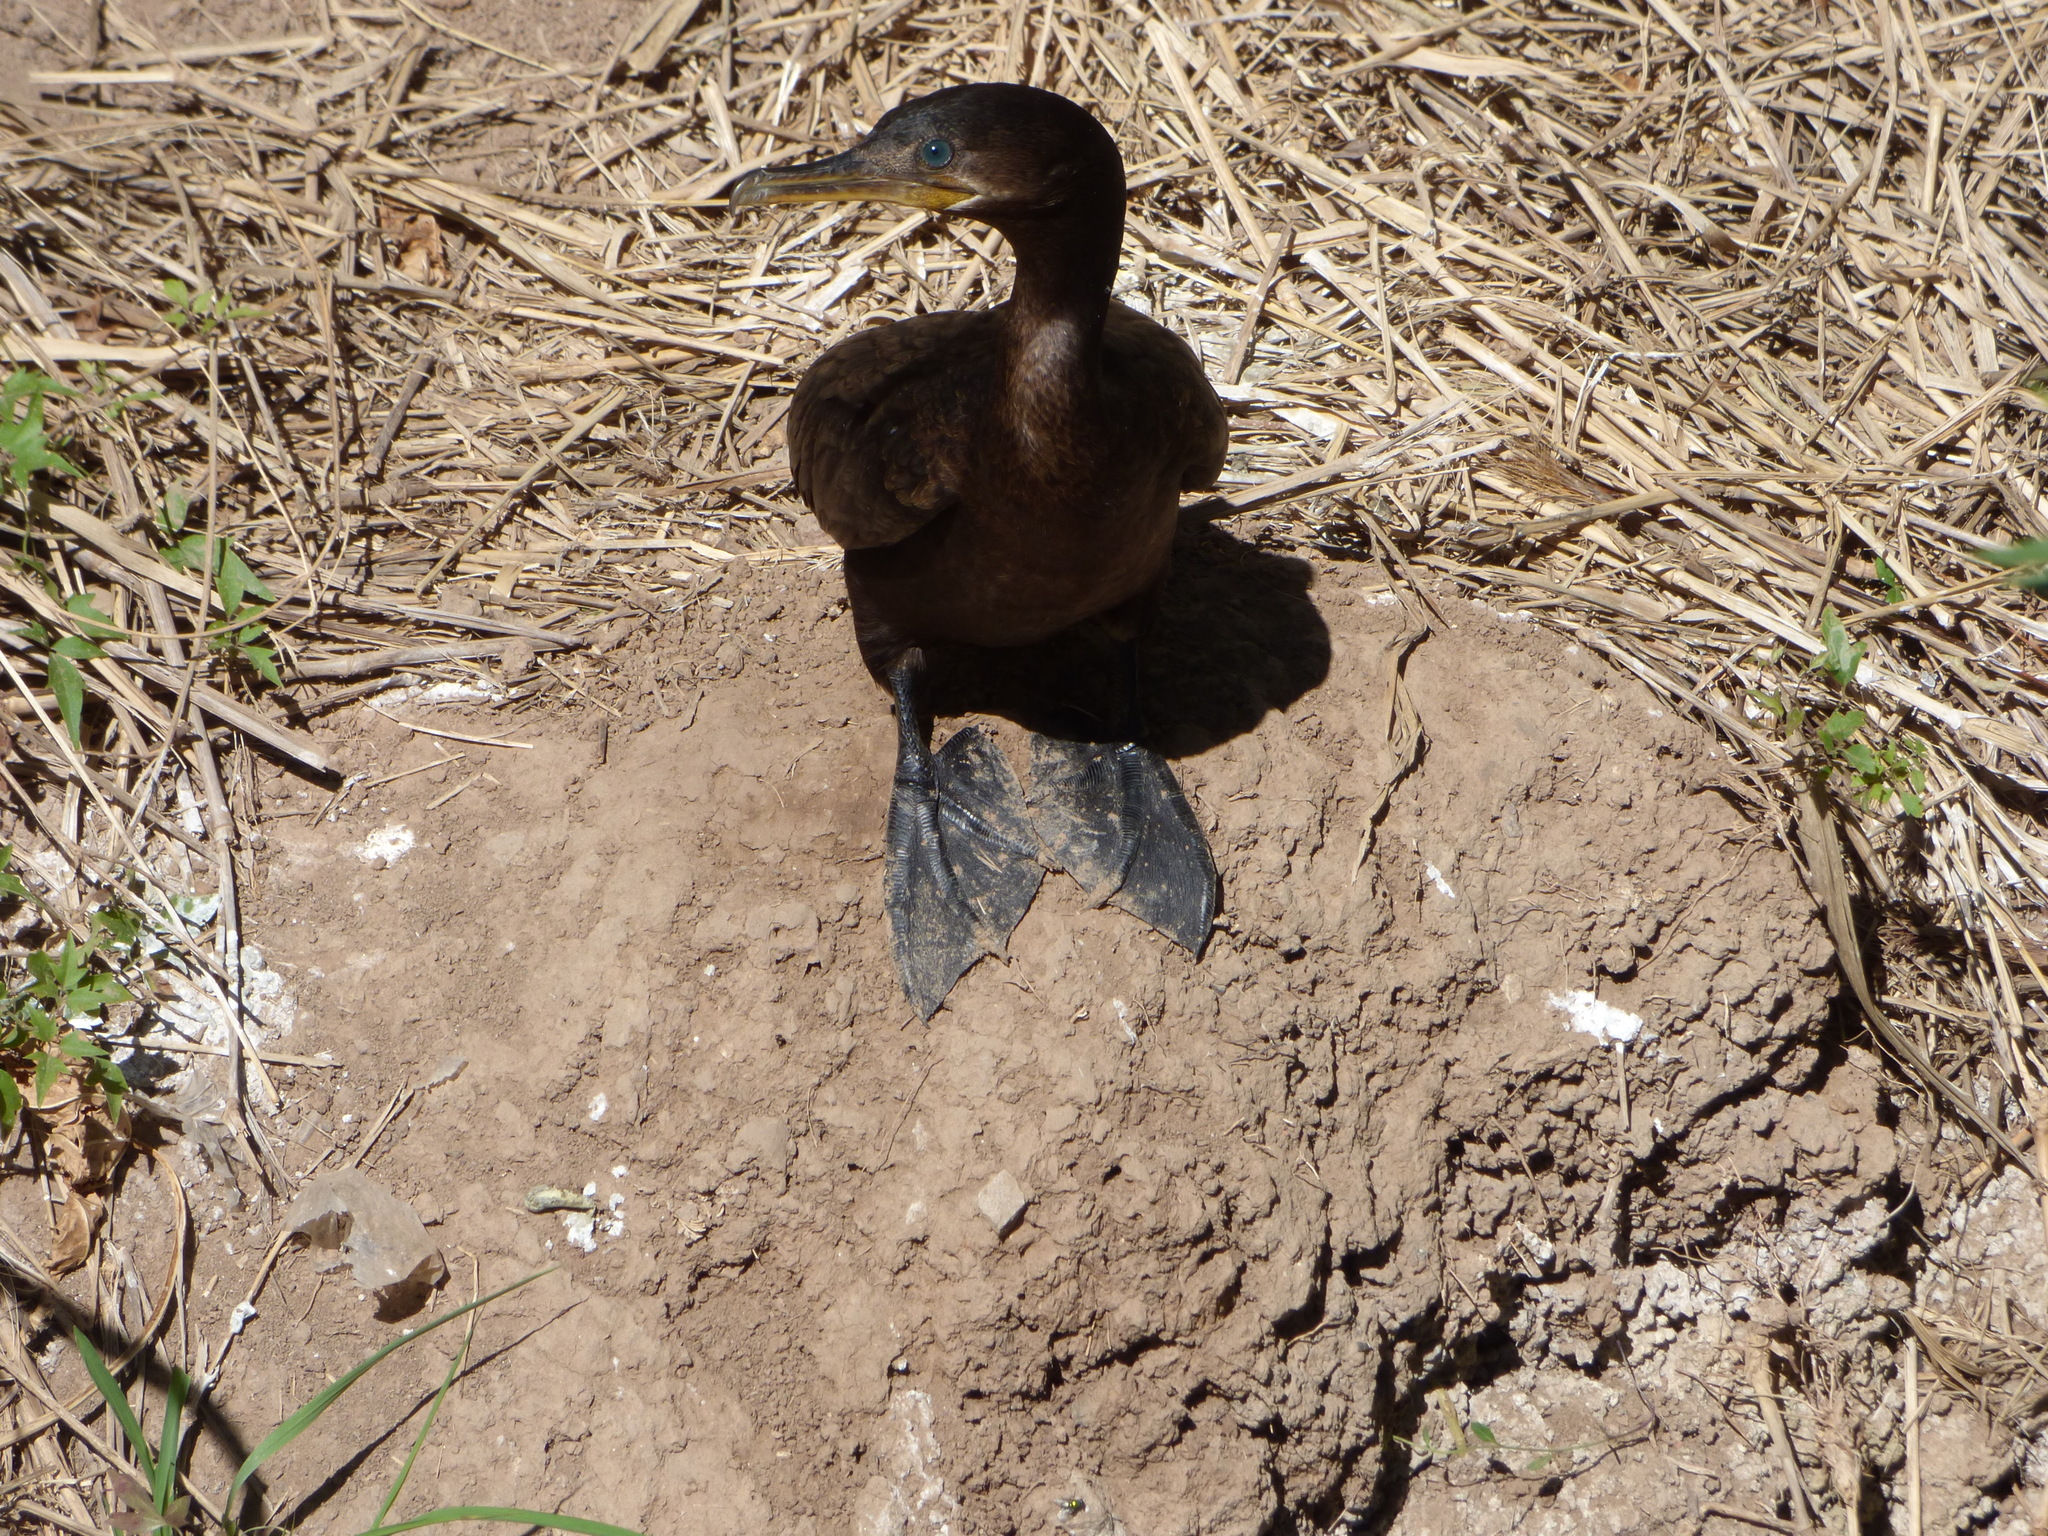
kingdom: Animalia
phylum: Chordata
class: Aves
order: Suliformes
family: Phalacrocoracidae
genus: Phalacrocorax
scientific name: Phalacrocorax brasilianus
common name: Neotropic cormorant
